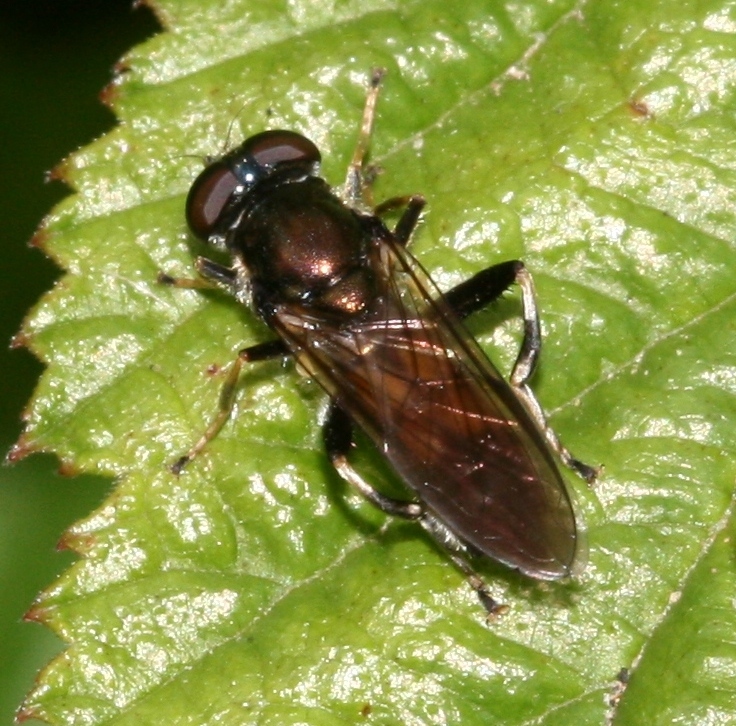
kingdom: Animalia
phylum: Arthropoda
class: Insecta
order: Diptera
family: Syrphidae
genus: Xylota
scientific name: Xylota segnis
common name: Brown-toed forest fly
